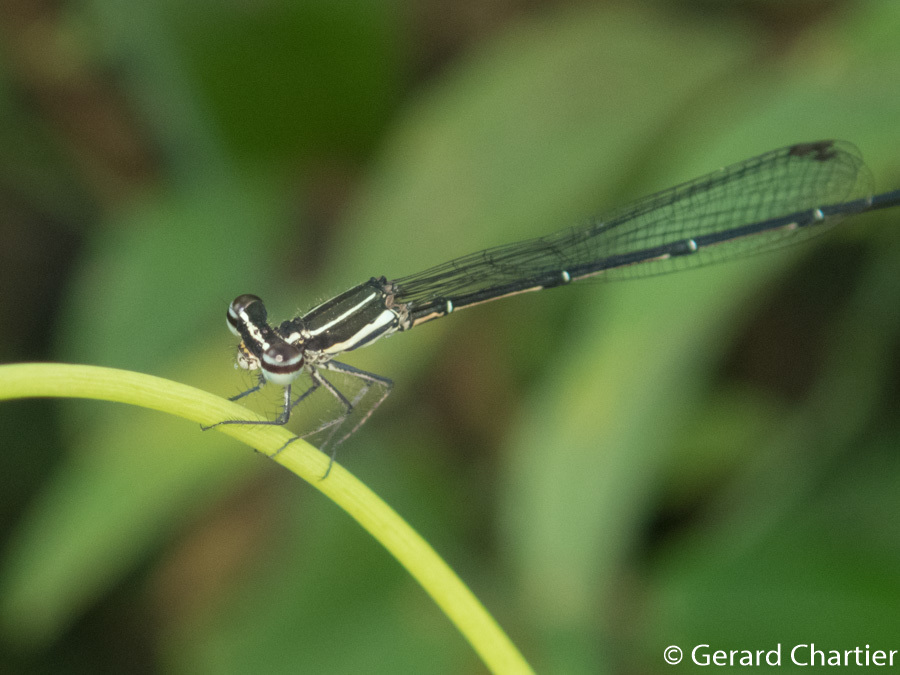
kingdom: Animalia
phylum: Arthropoda
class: Insecta
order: Odonata
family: Platycnemididae
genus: Prodasineura
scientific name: Prodasineura autumnalis
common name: Black threadtail
